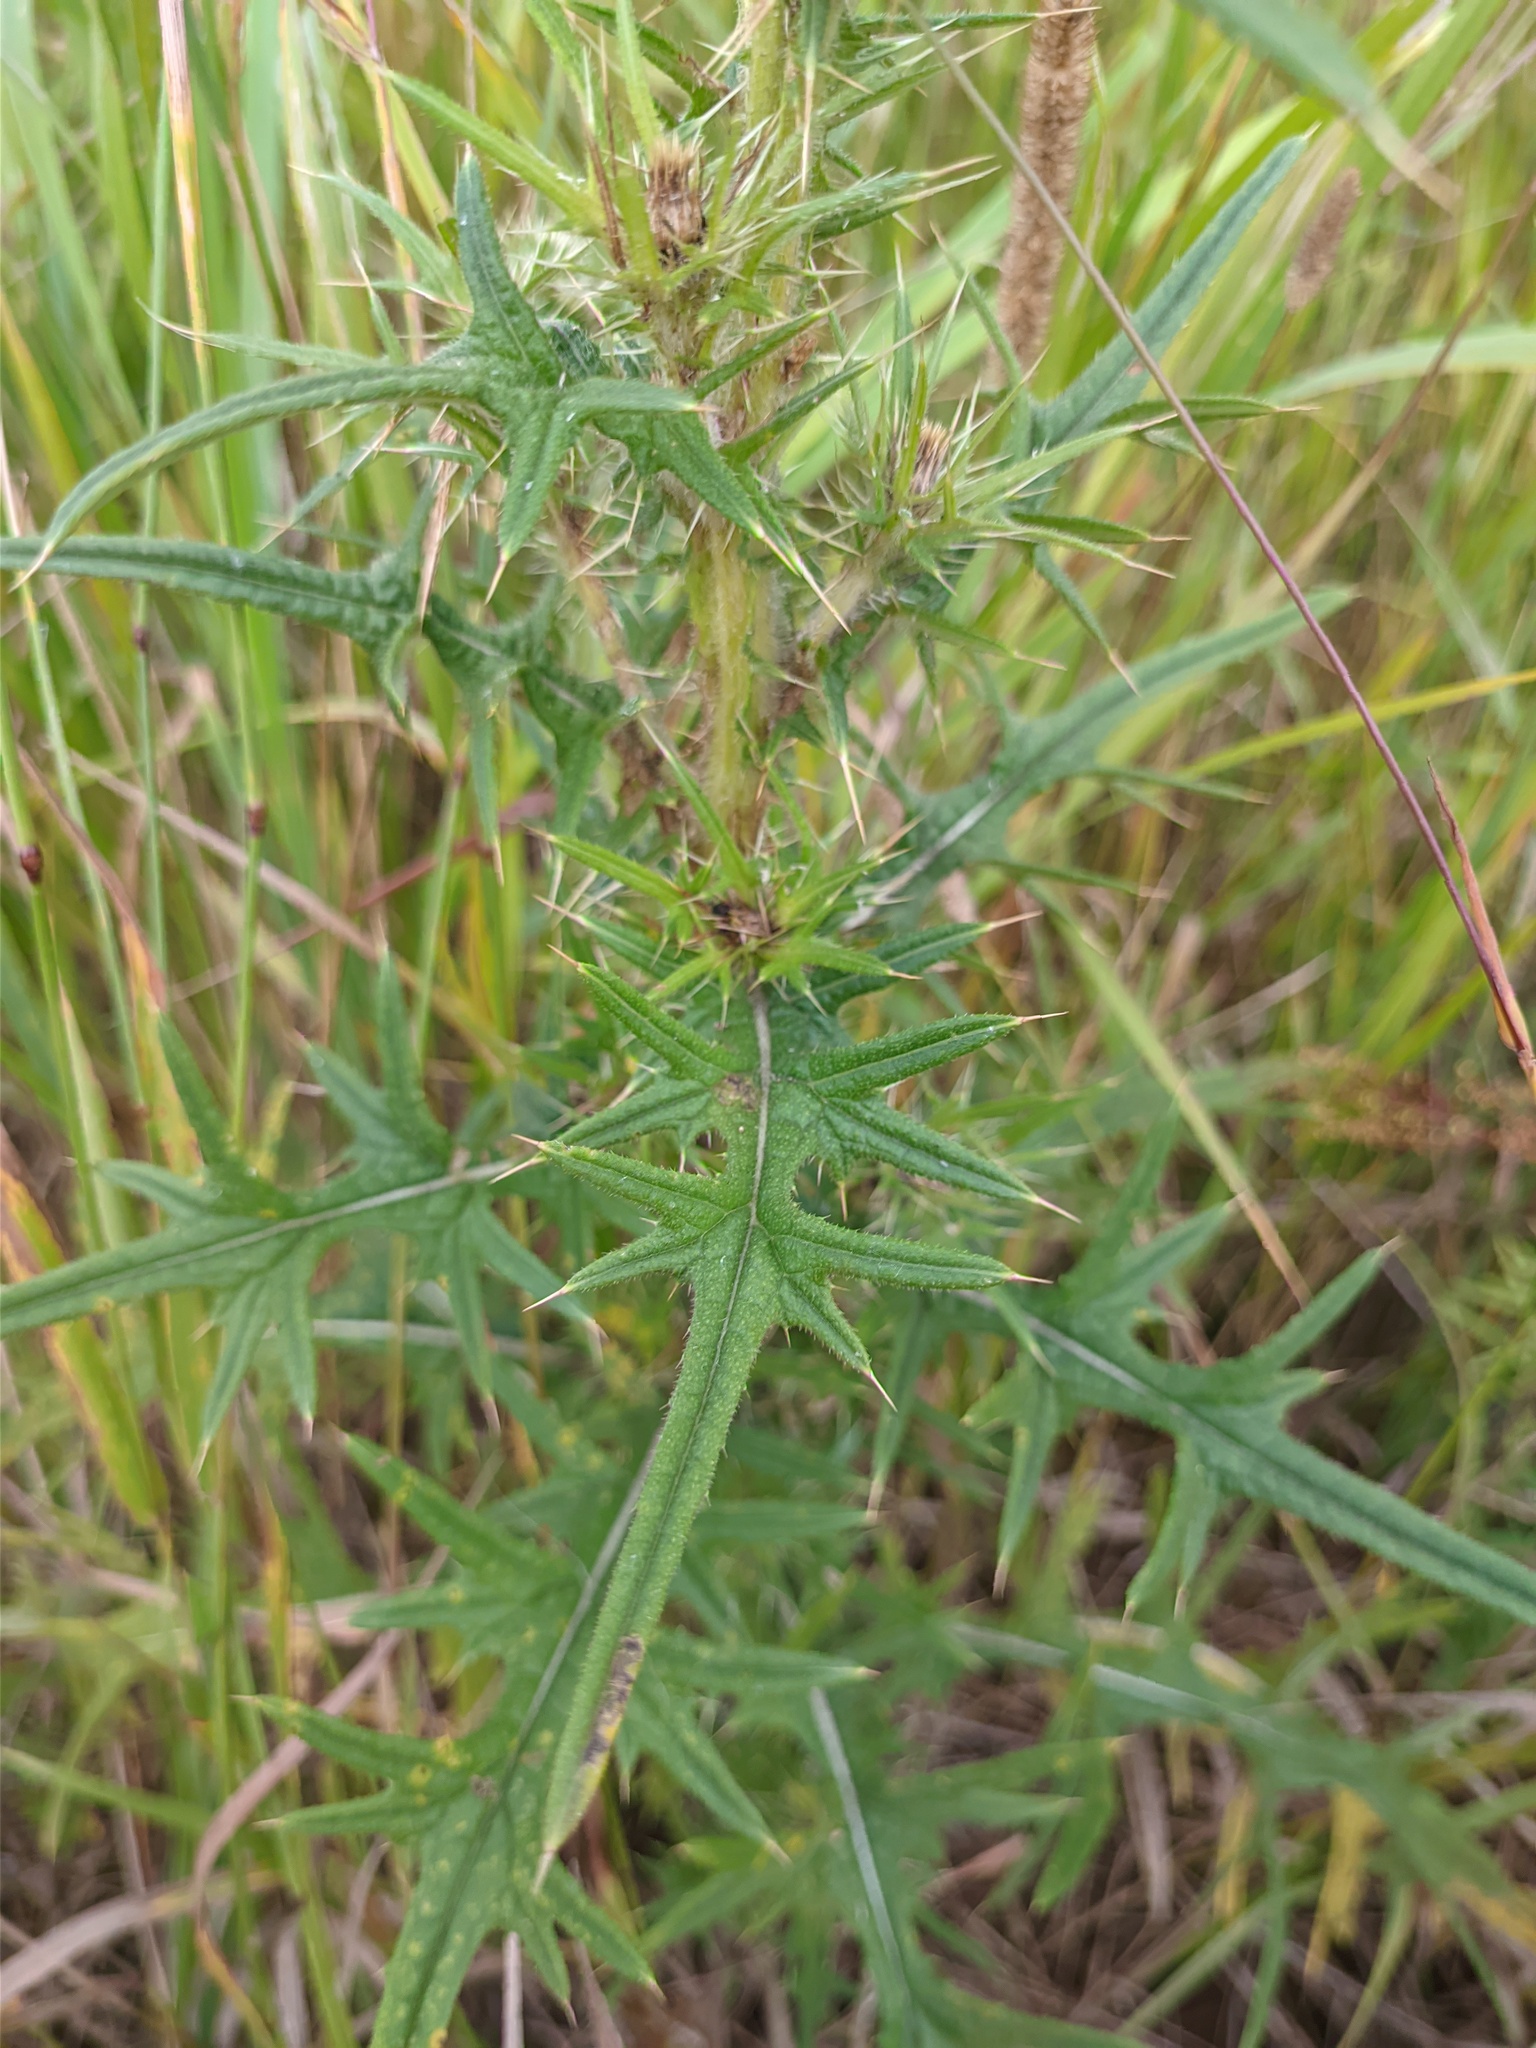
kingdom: Plantae
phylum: Tracheophyta
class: Magnoliopsida
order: Asterales
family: Asteraceae
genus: Cirsium
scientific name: Cirsium vulgare
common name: Bull thistle
